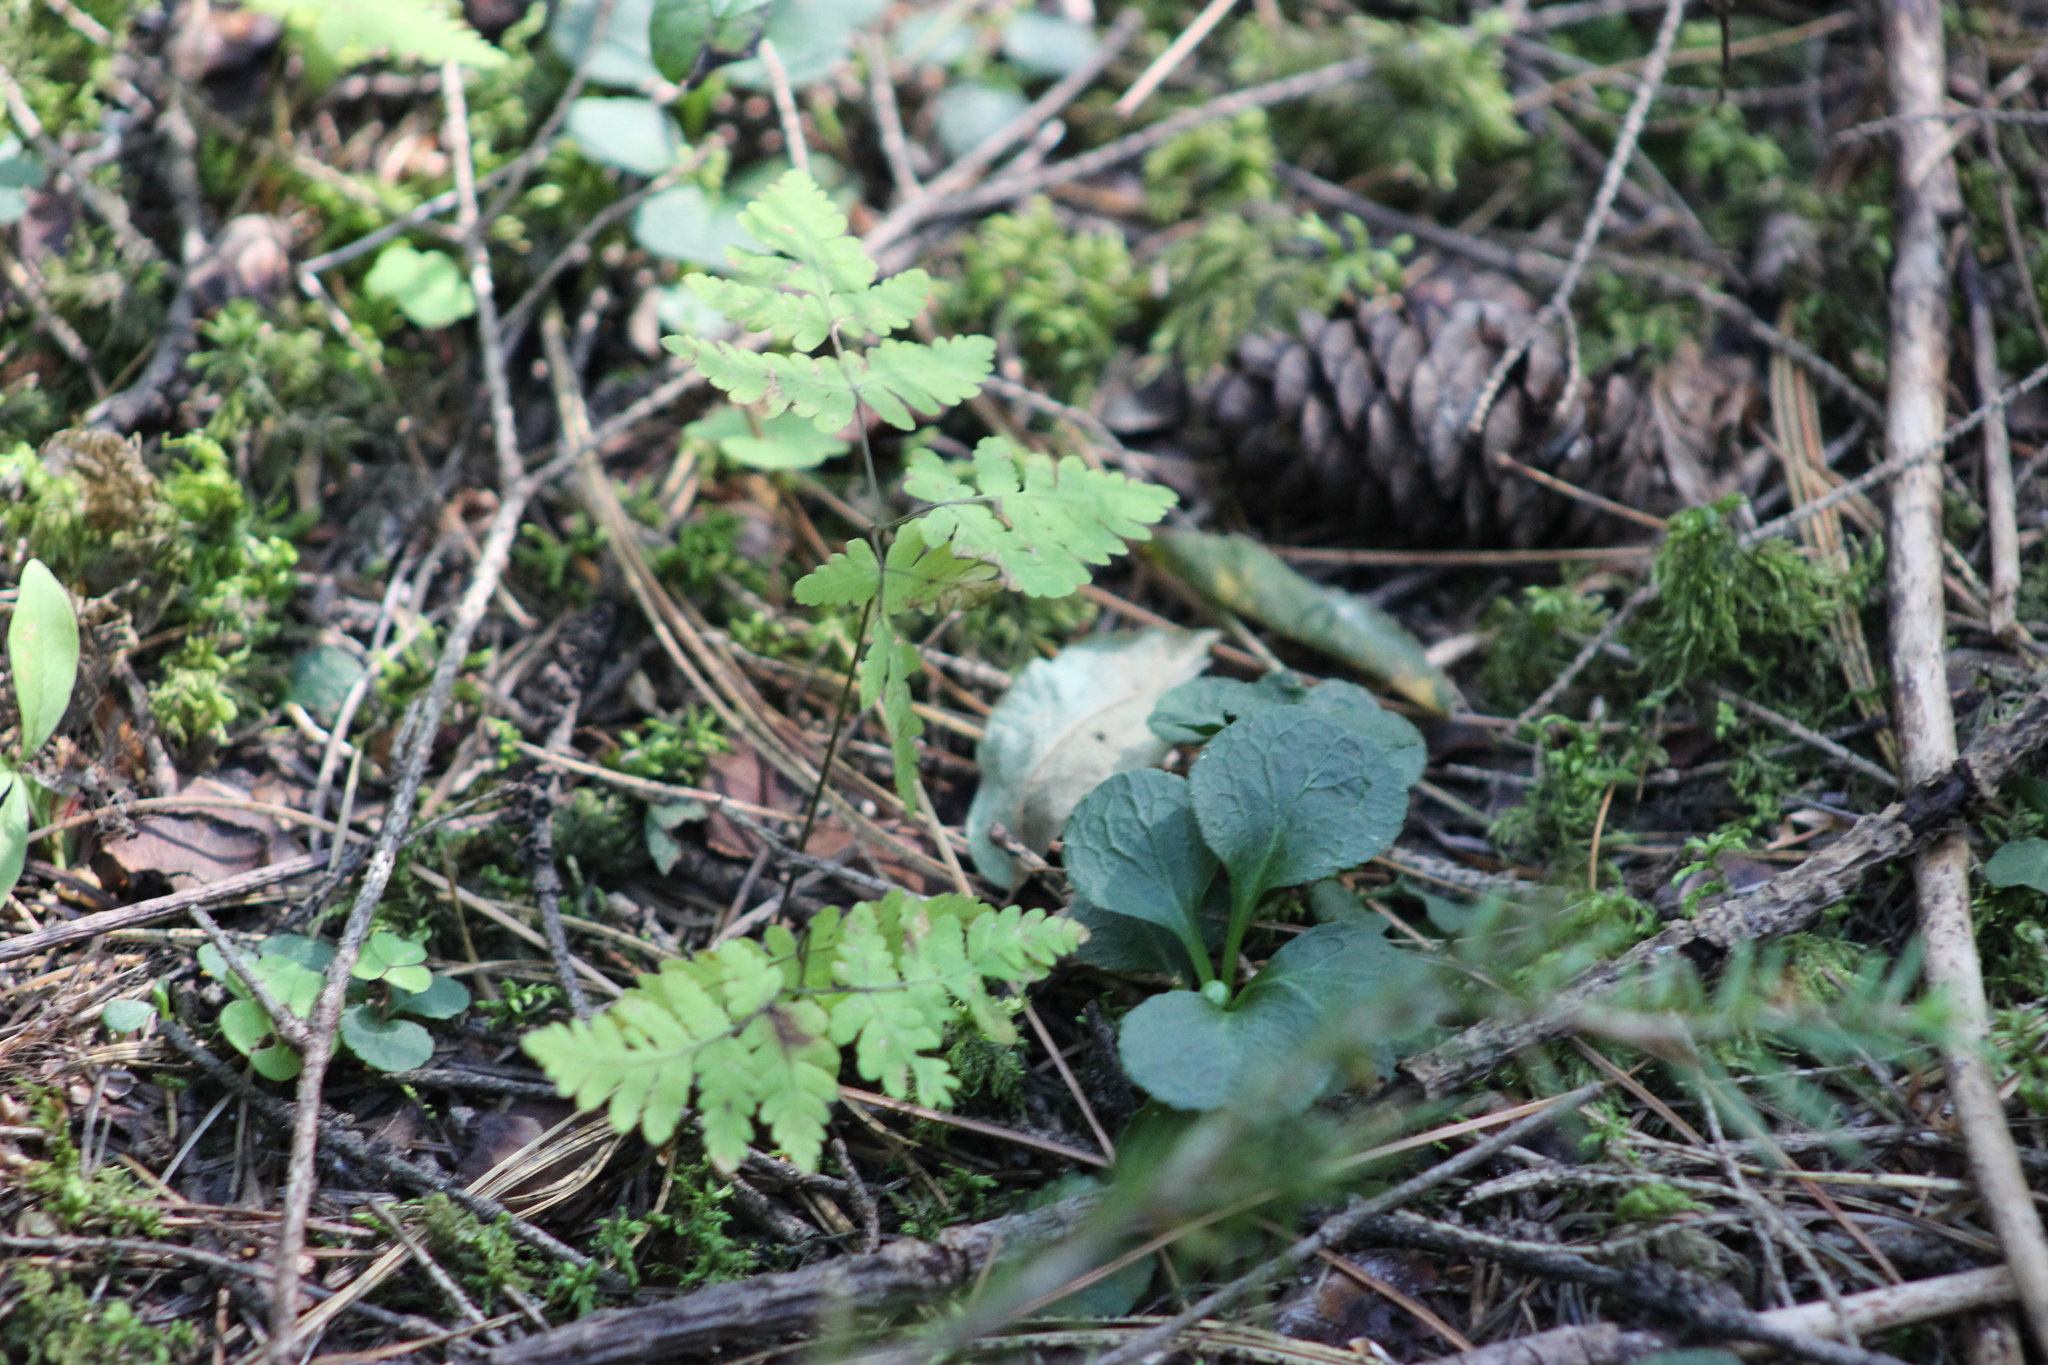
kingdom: Plantae
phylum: Tracheophyta
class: Magnoliopsida
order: Ericales
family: Ericaceae
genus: Moneses
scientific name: Moneses uniflora
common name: One-flowered wintergreen
